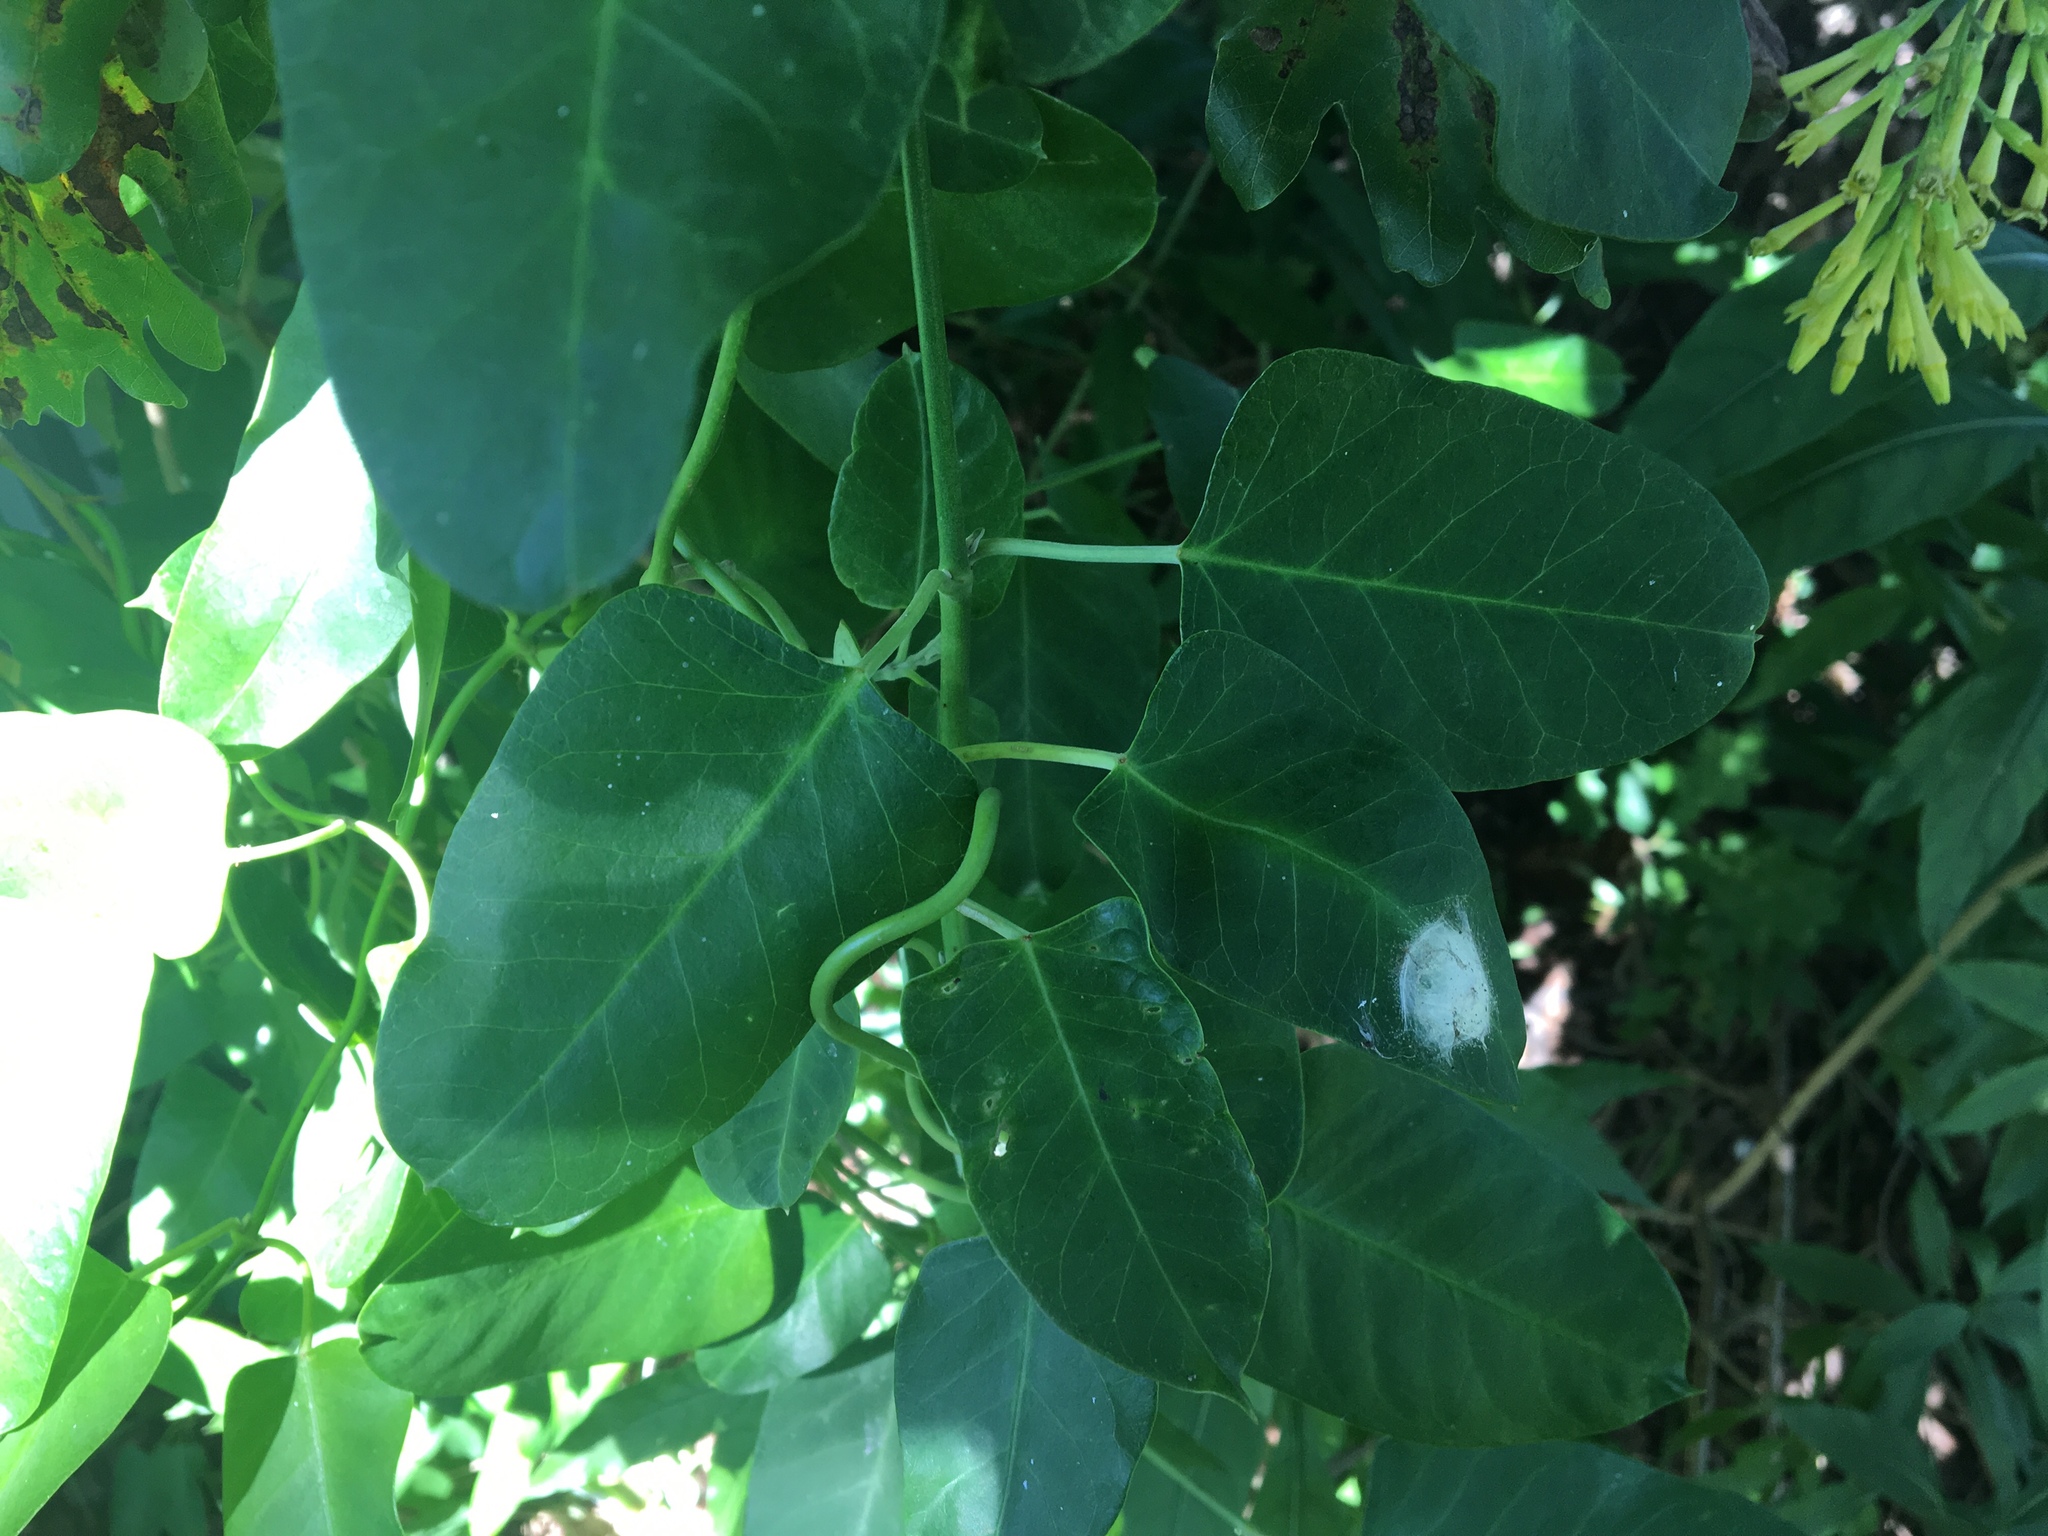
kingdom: Plantae
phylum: Tracheophyta
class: Magnoliopsida
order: Gentianales
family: Apocynaceae
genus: Araujia
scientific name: Araujia sericifera
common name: White bladderflower
